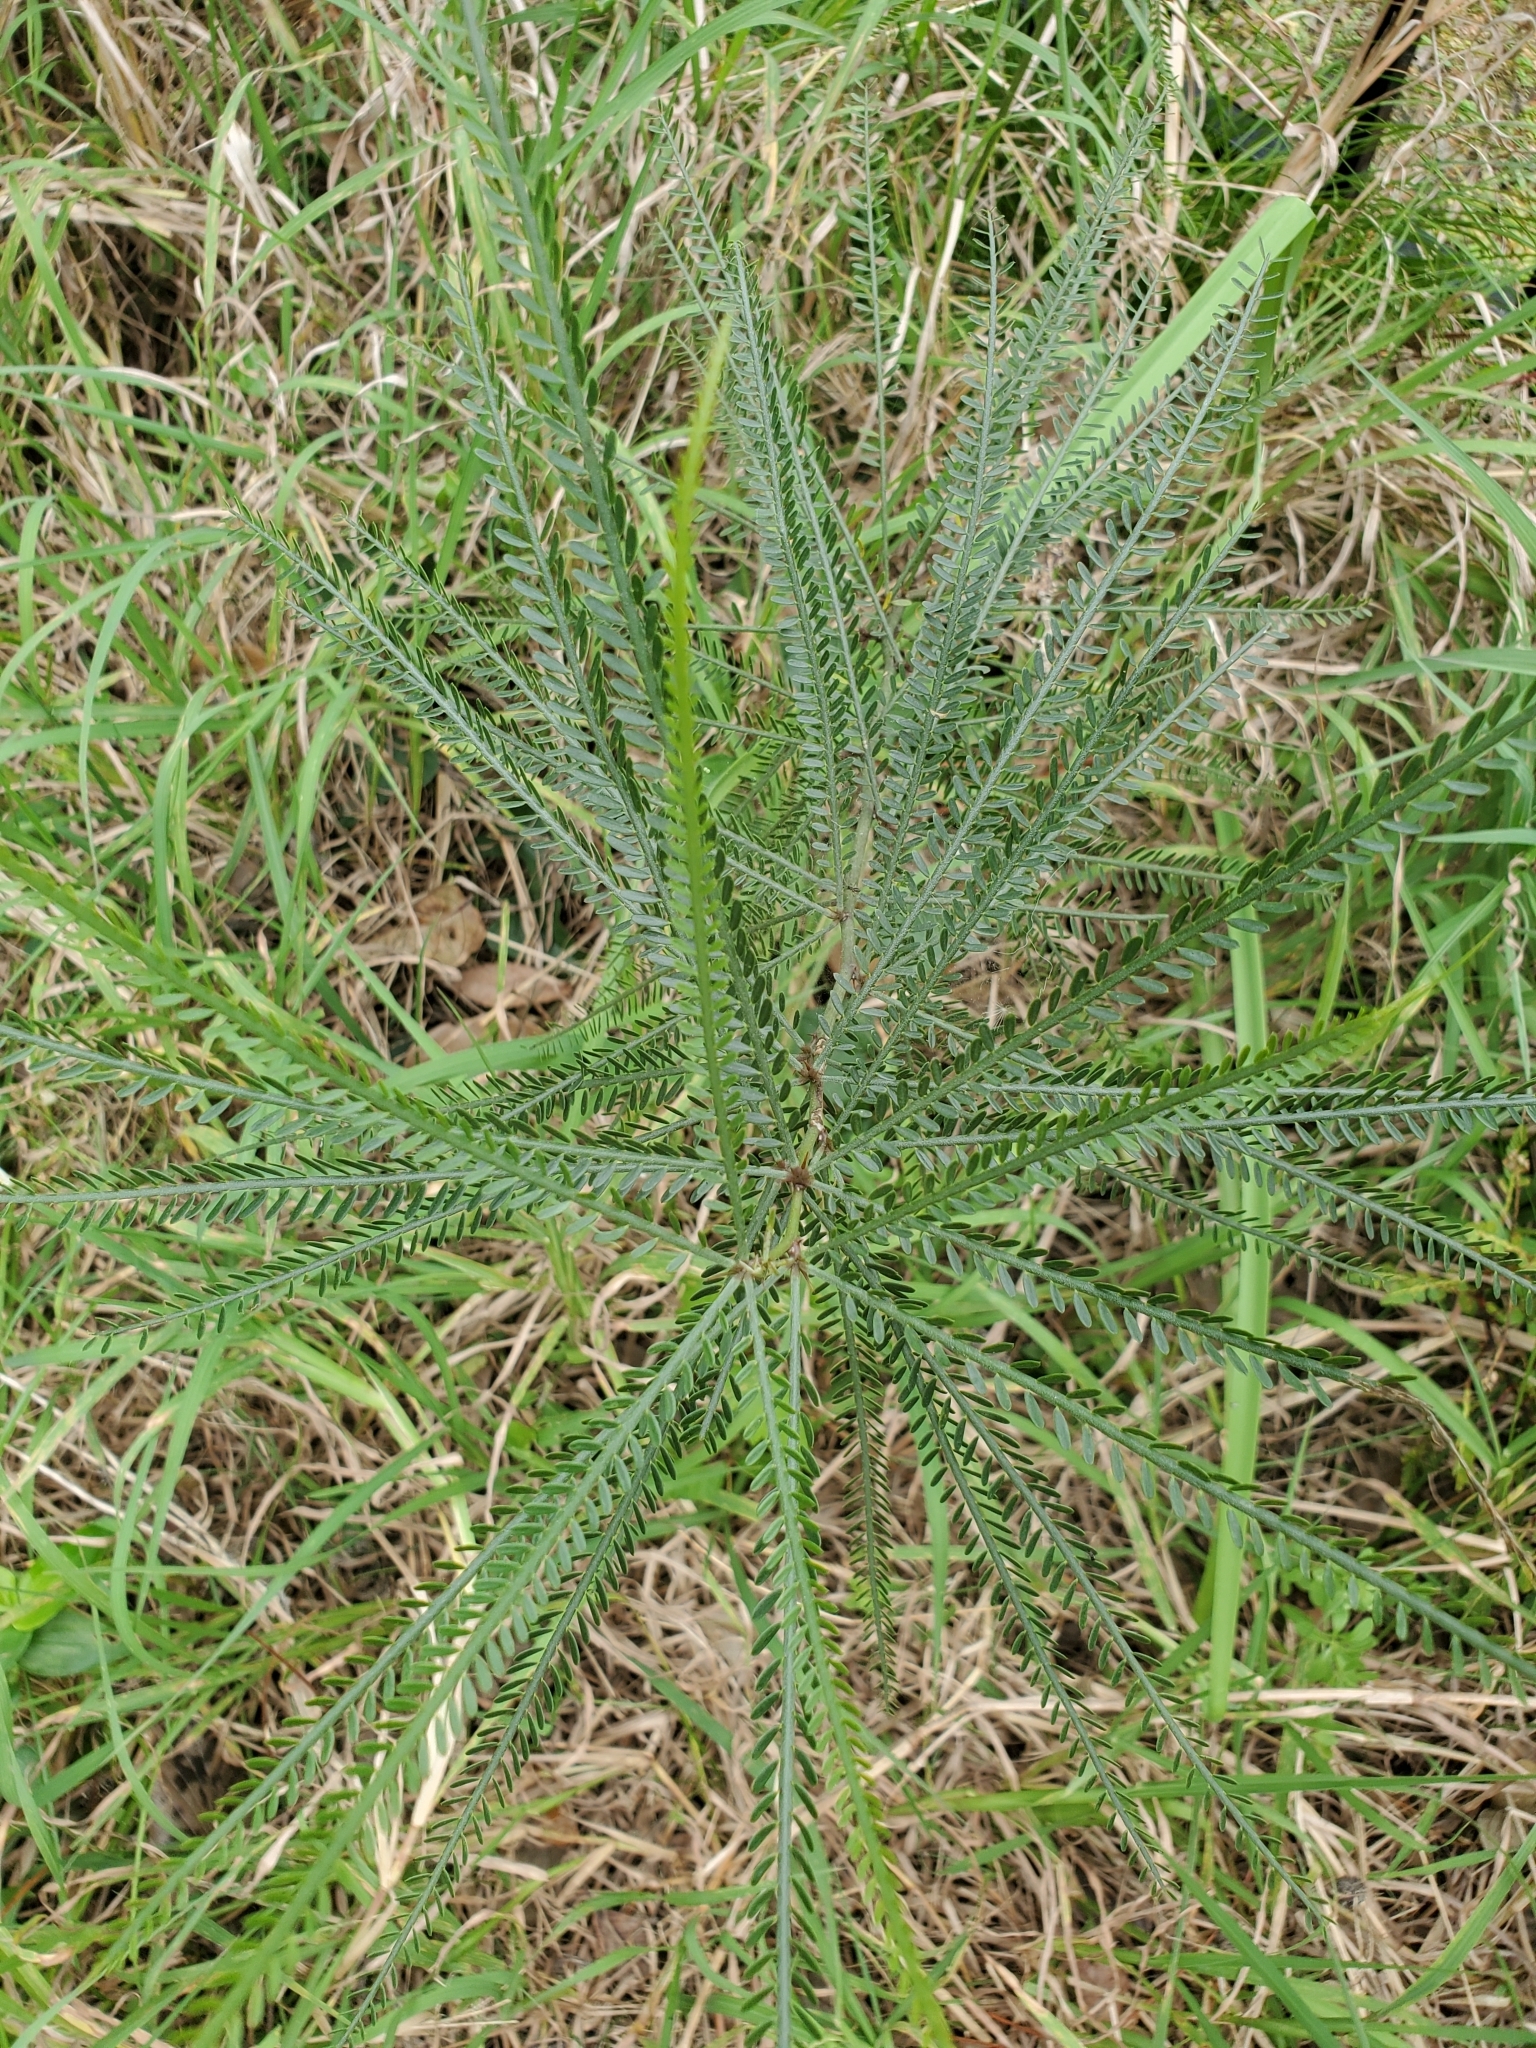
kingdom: Plantae
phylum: Tracheophyta
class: Magnoliopsida
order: Fabales
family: Fabaceae
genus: Parkinsonia
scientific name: Parkinsonia aculeata
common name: Jerusalem thorn
